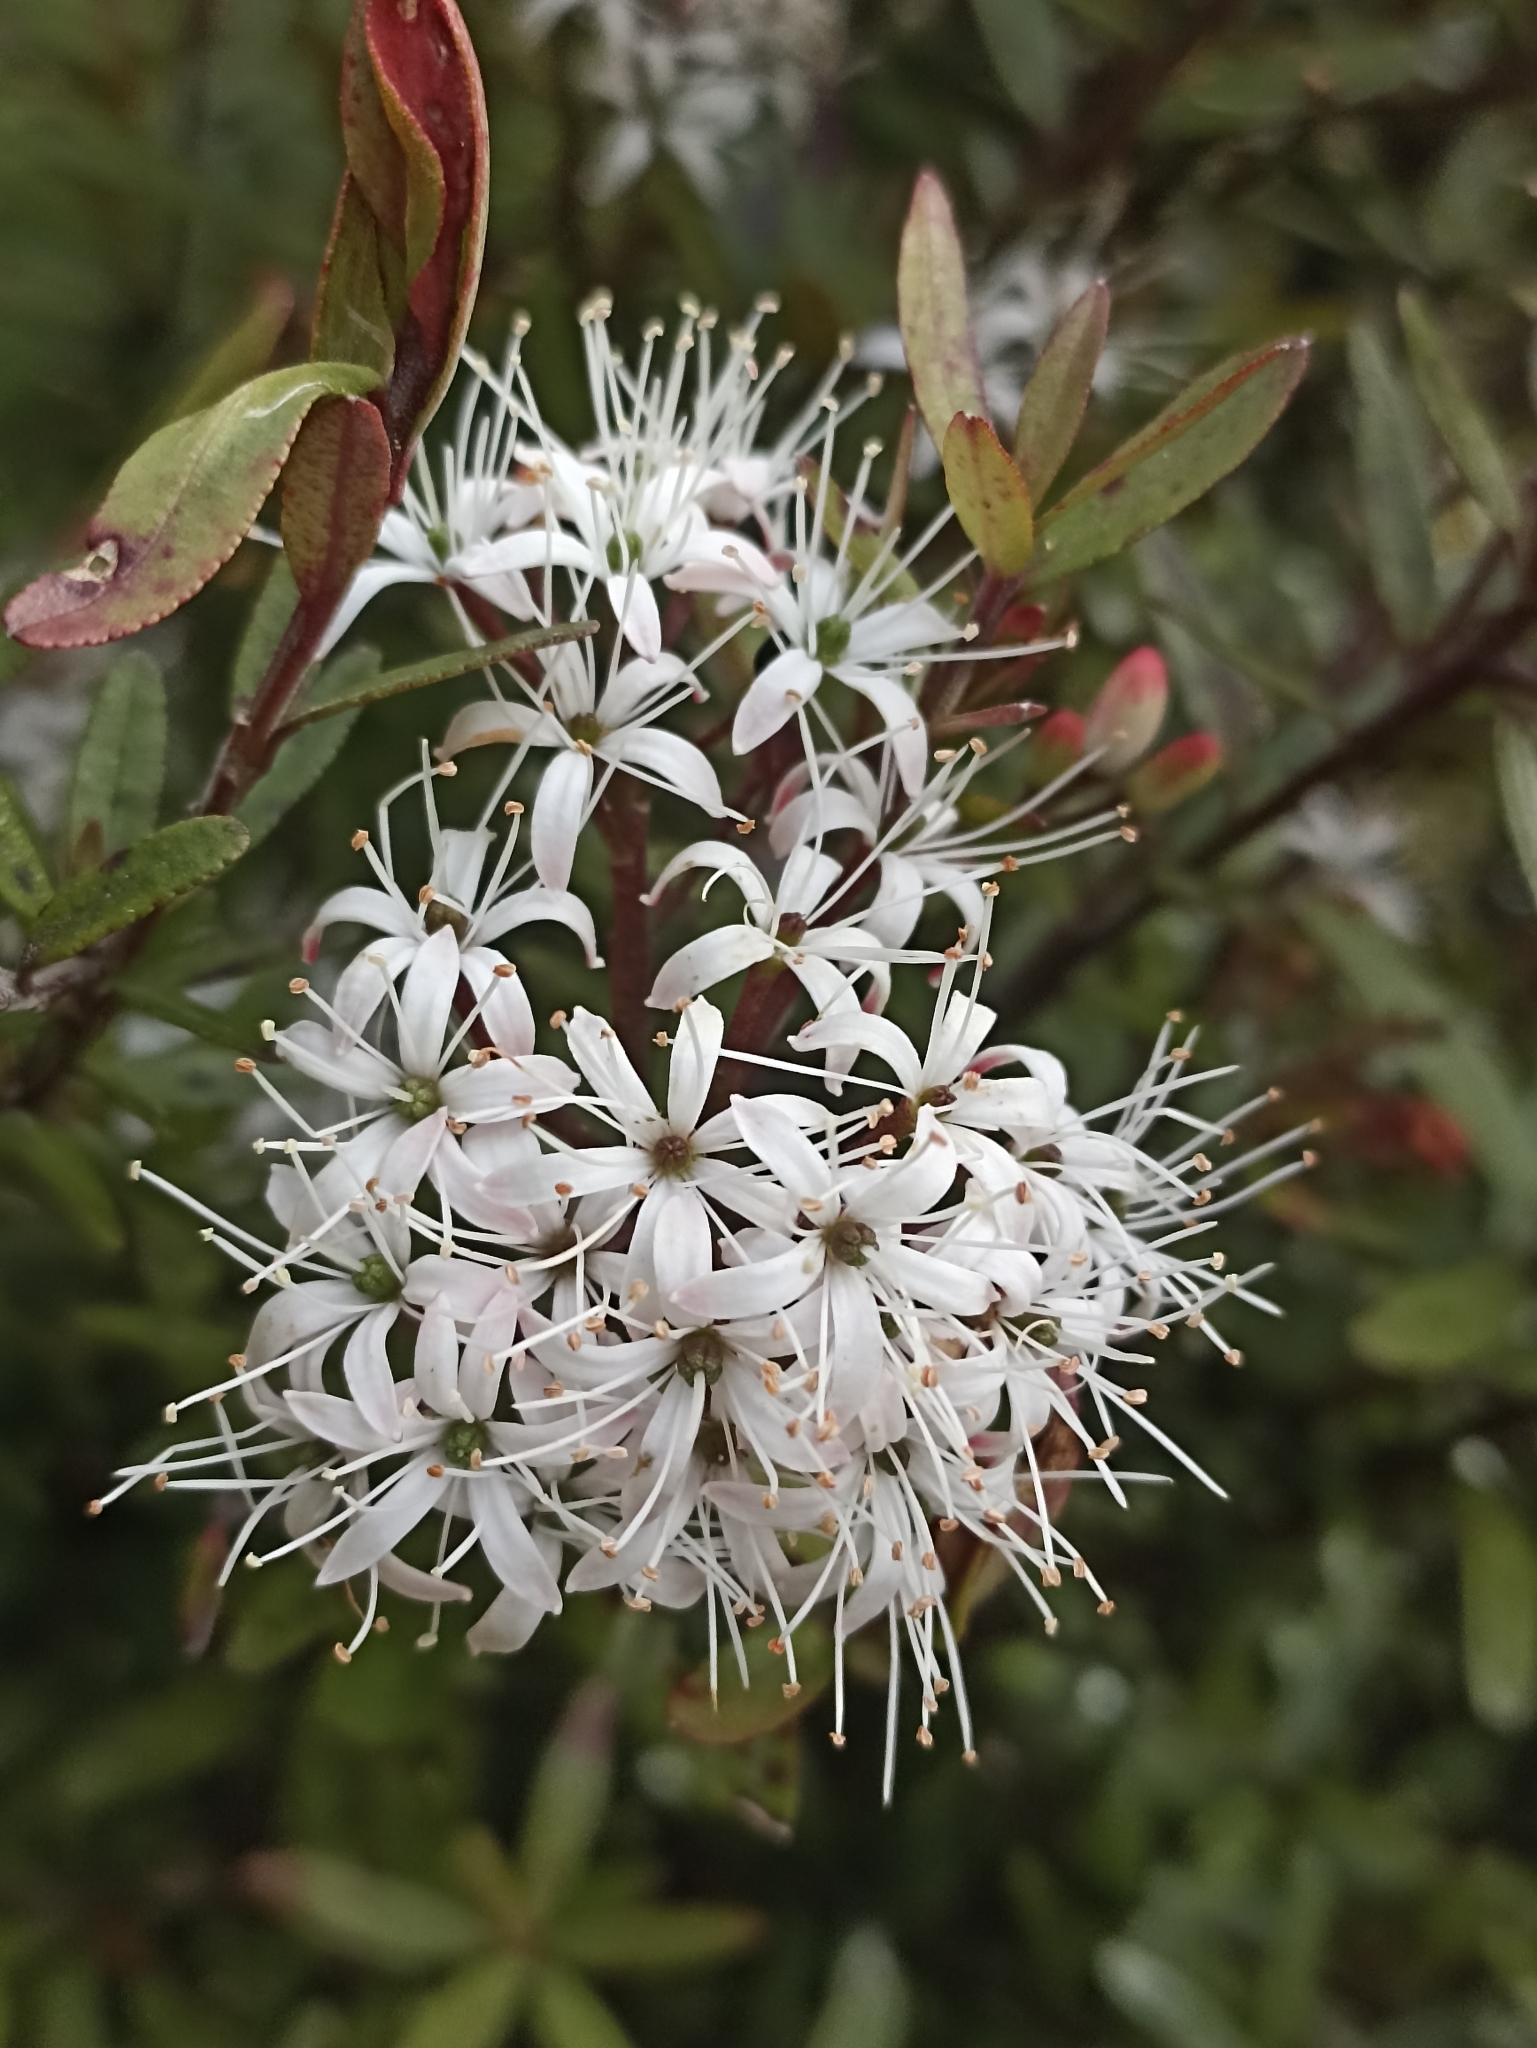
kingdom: Plantae
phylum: Tracheophyta
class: Magnoliopsida
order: Sapindales
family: Rutaceae
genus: Leionema
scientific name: Leionema nudum
